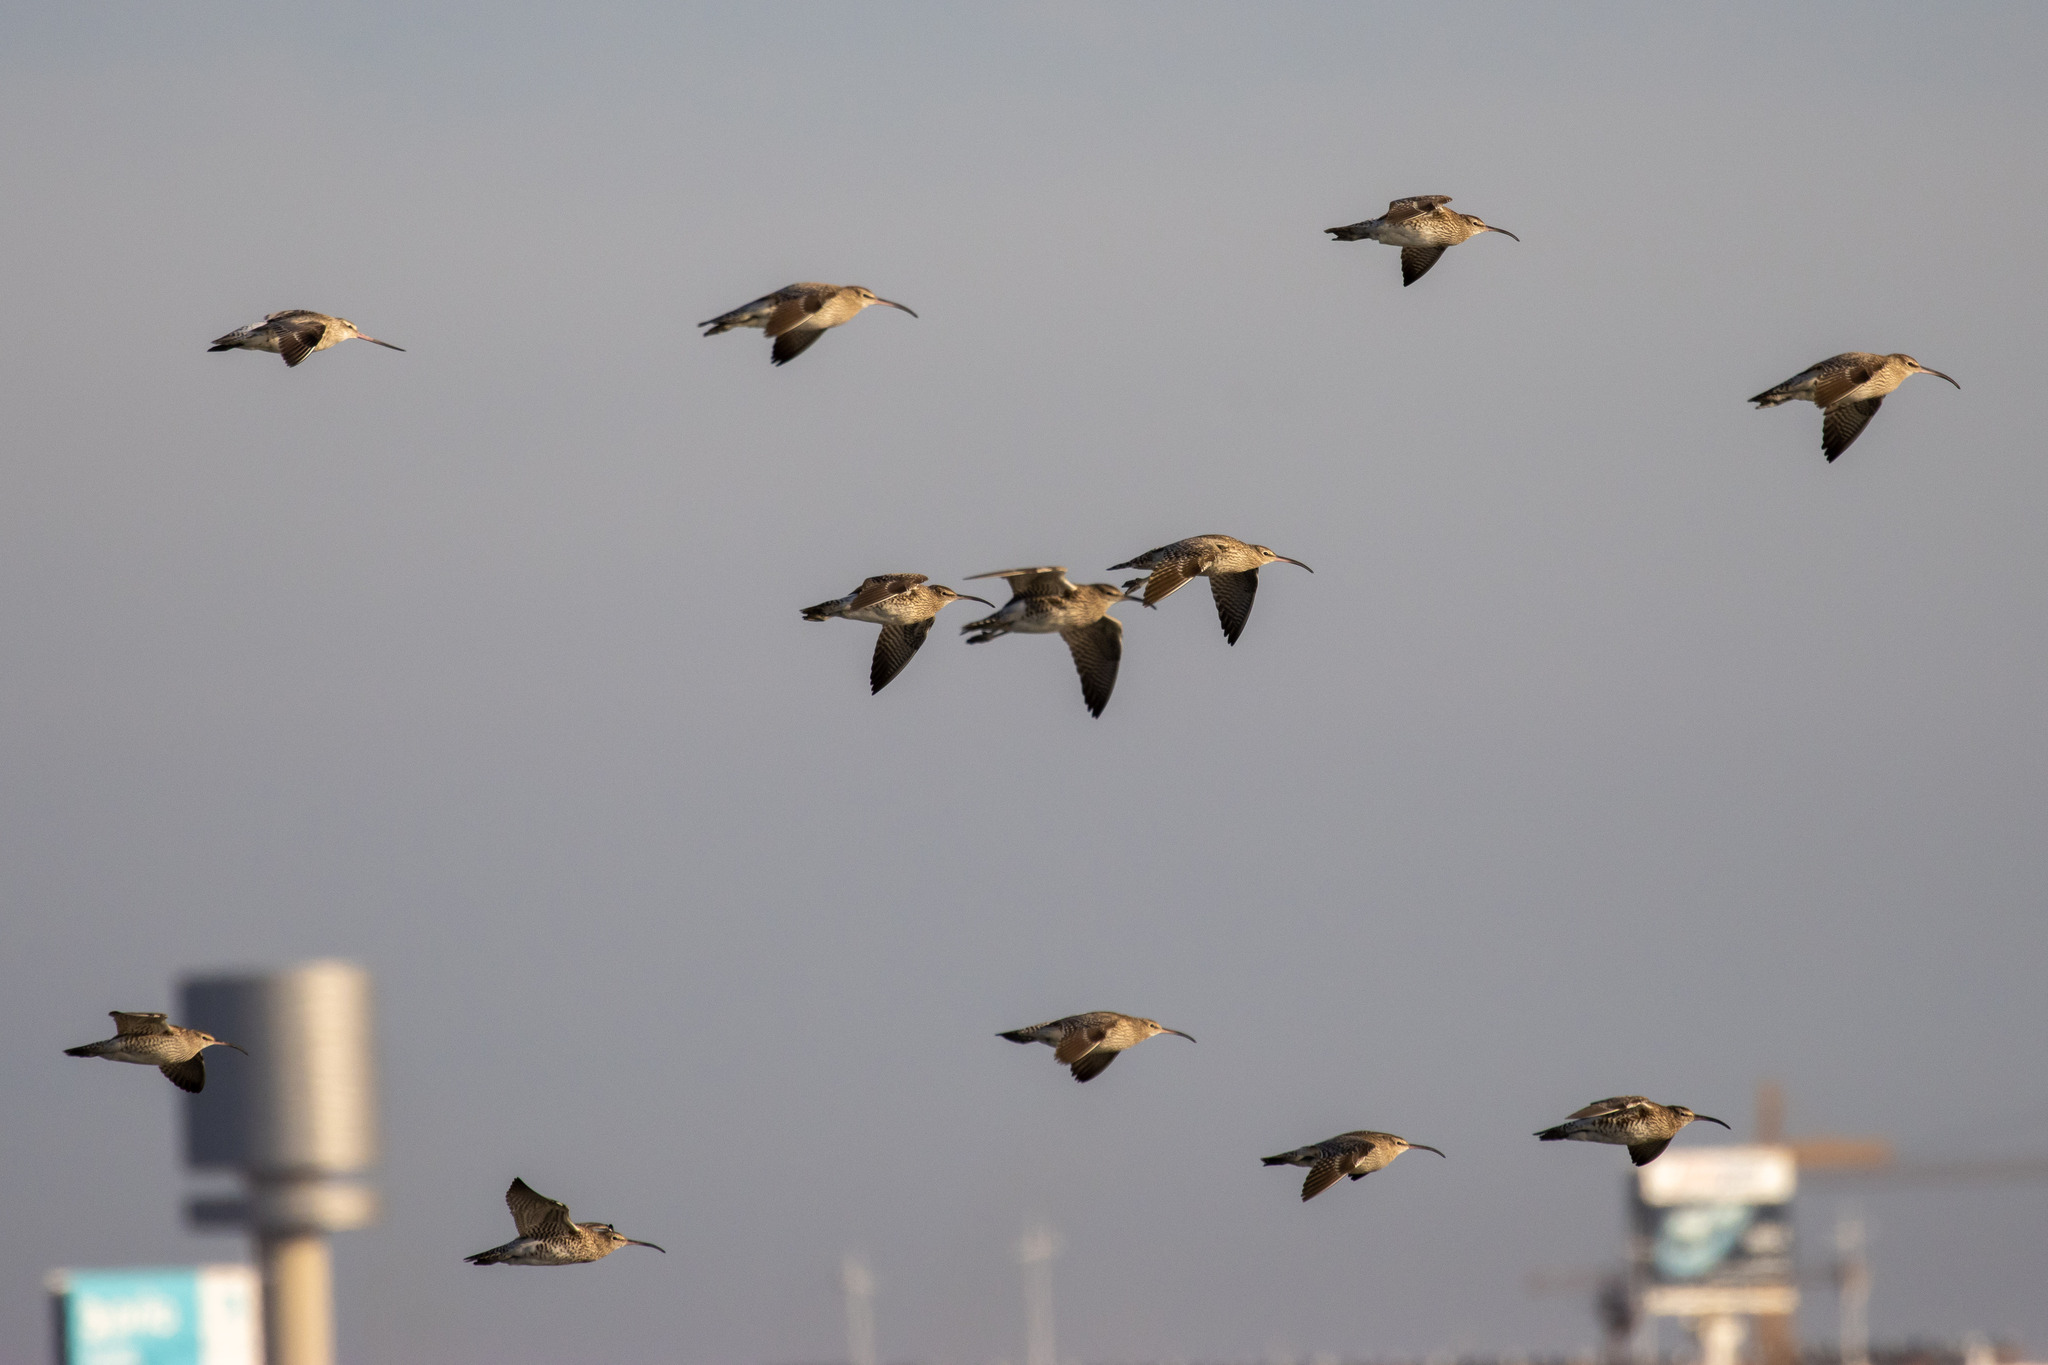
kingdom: Animalia
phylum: Chordata
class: Aves
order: Charadriiformes
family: Scolopacidae
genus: Numenius
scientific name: Numenius phaeopus
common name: Whimbrel
